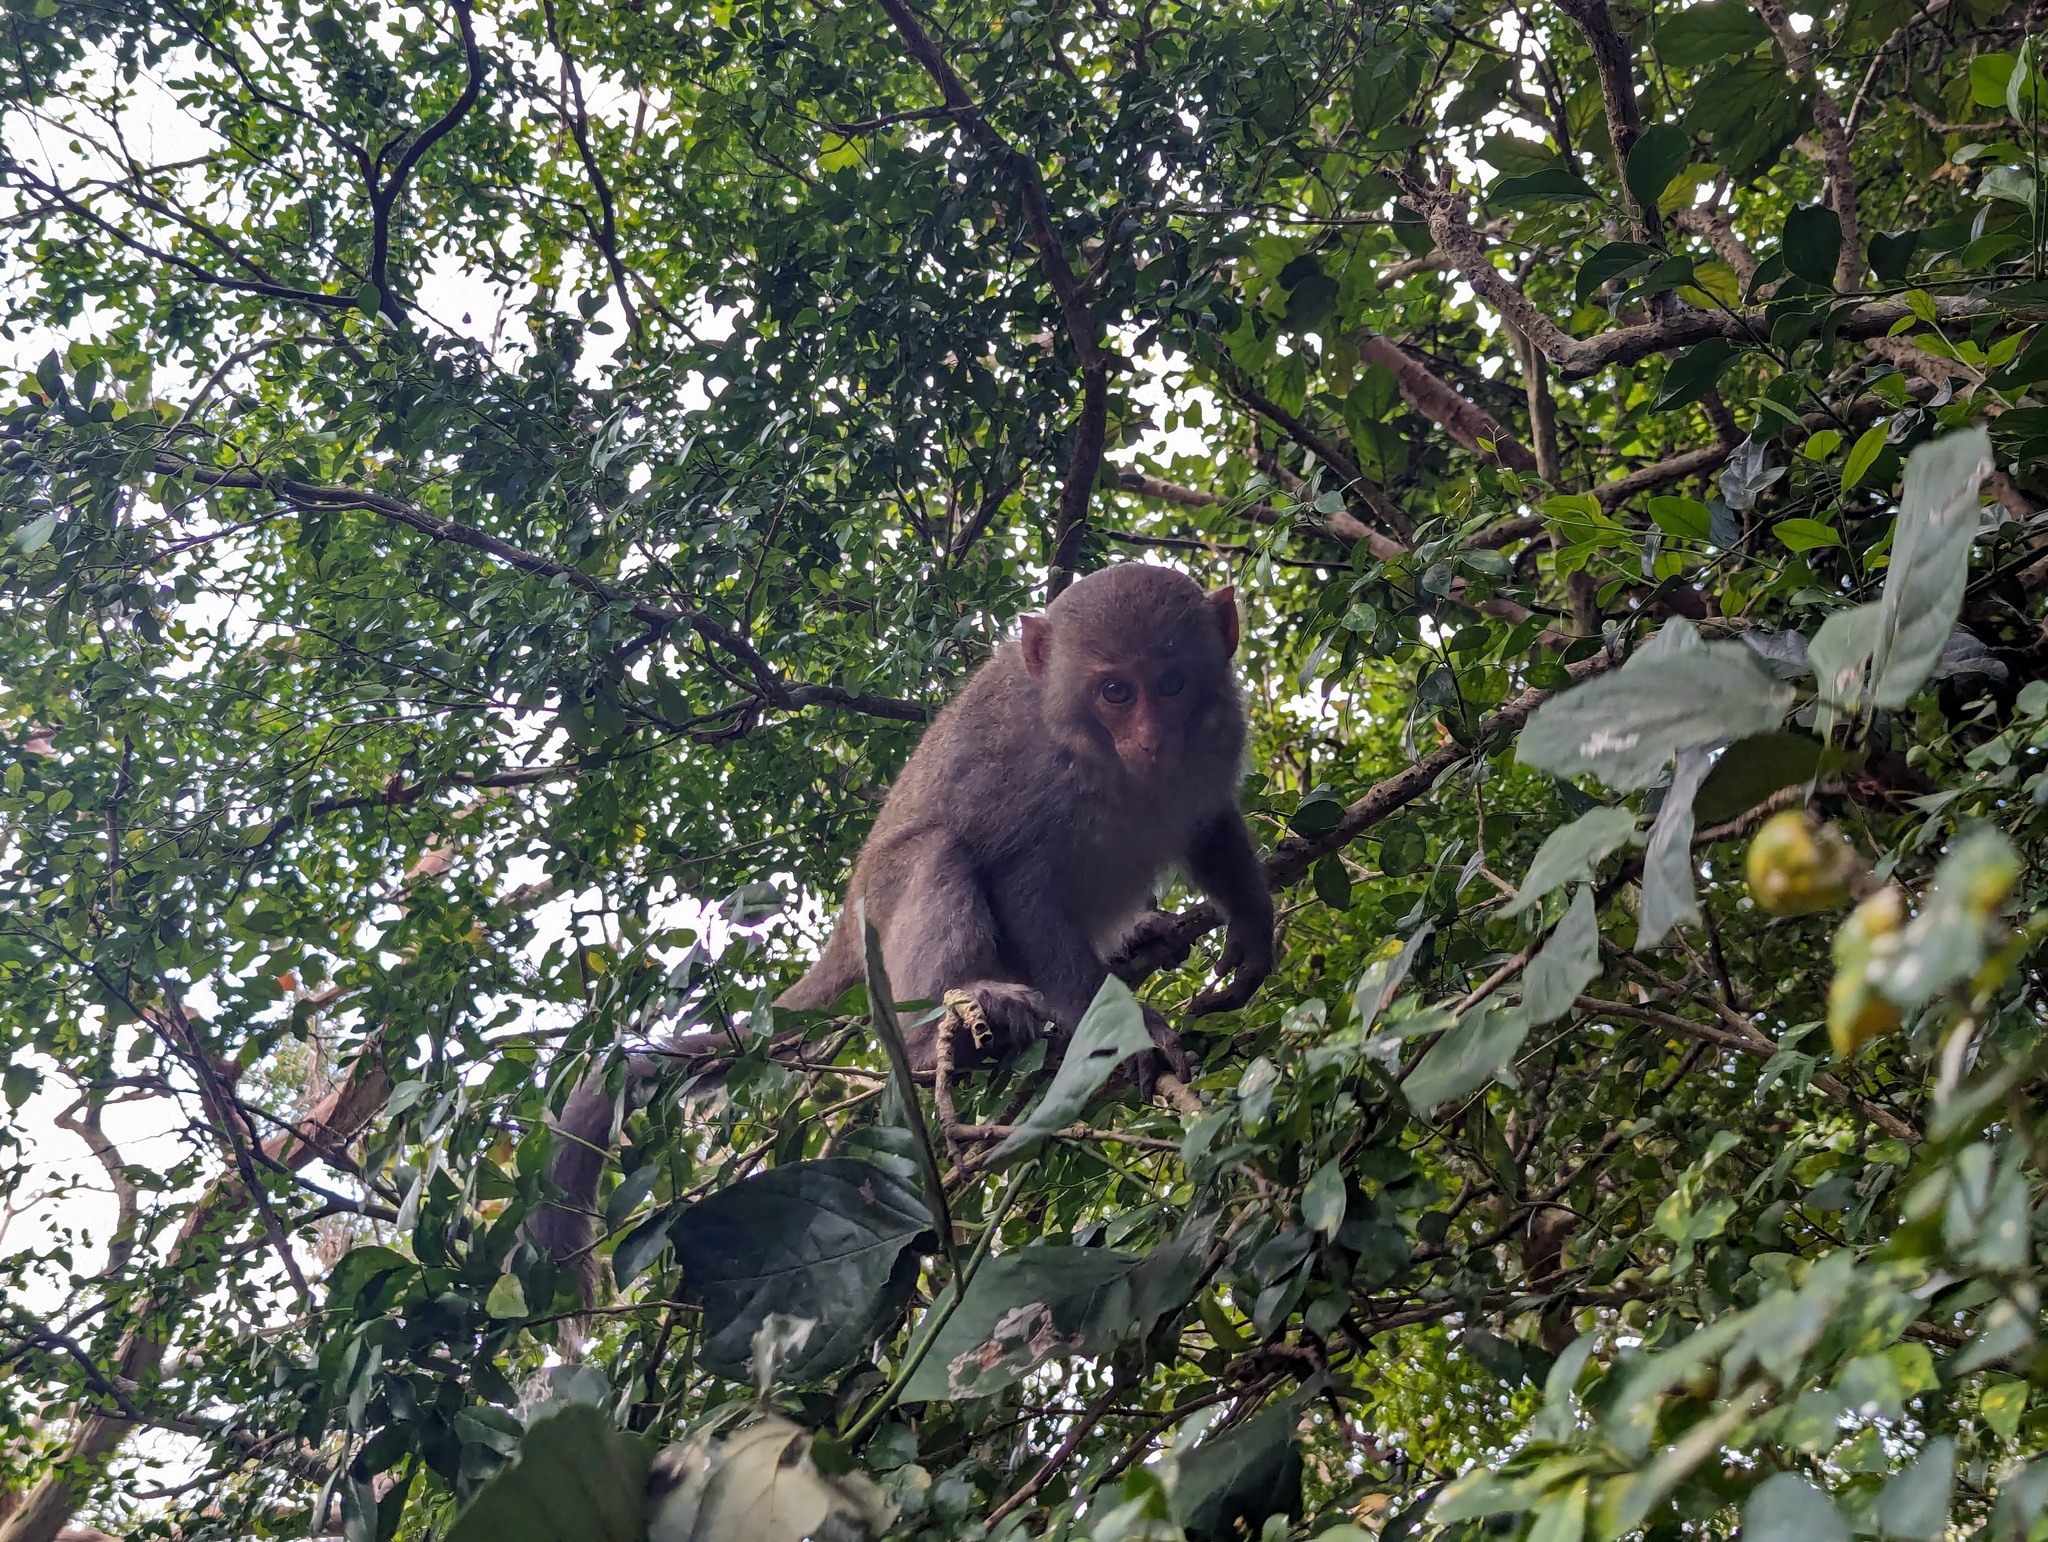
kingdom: Animalia
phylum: Chordata
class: Mammalia
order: Primates
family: Cercopithecidae
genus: Macaca
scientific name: Macaca cyclopis
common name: Formosan rock macaque
